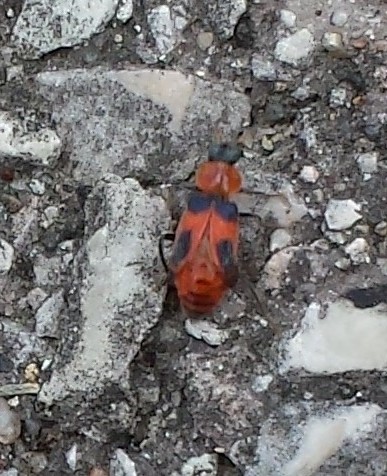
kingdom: Animalia
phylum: Arthropoda
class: Insecta
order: Coleoptera
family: Melyridae
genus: Collops
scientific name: Collops quadrimaculatus
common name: Four-spotted collops
